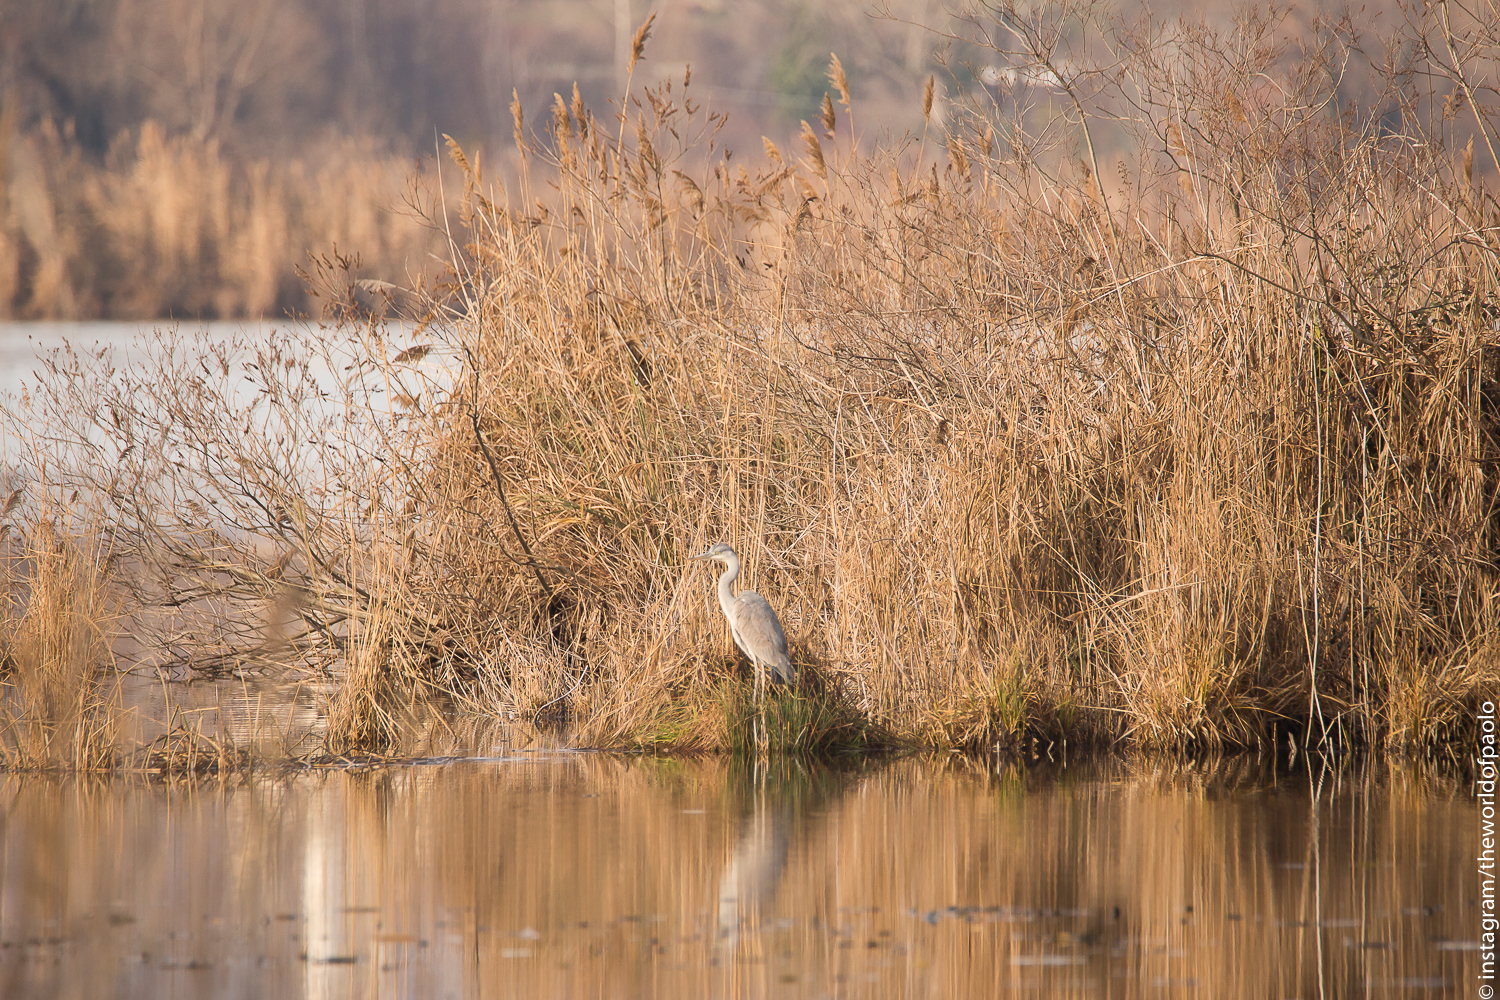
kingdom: Animalia
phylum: Chordata
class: Aves
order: Pelecaniformes
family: Ardeidae
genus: Ardea
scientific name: Ardea cinerea
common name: Grey heron
